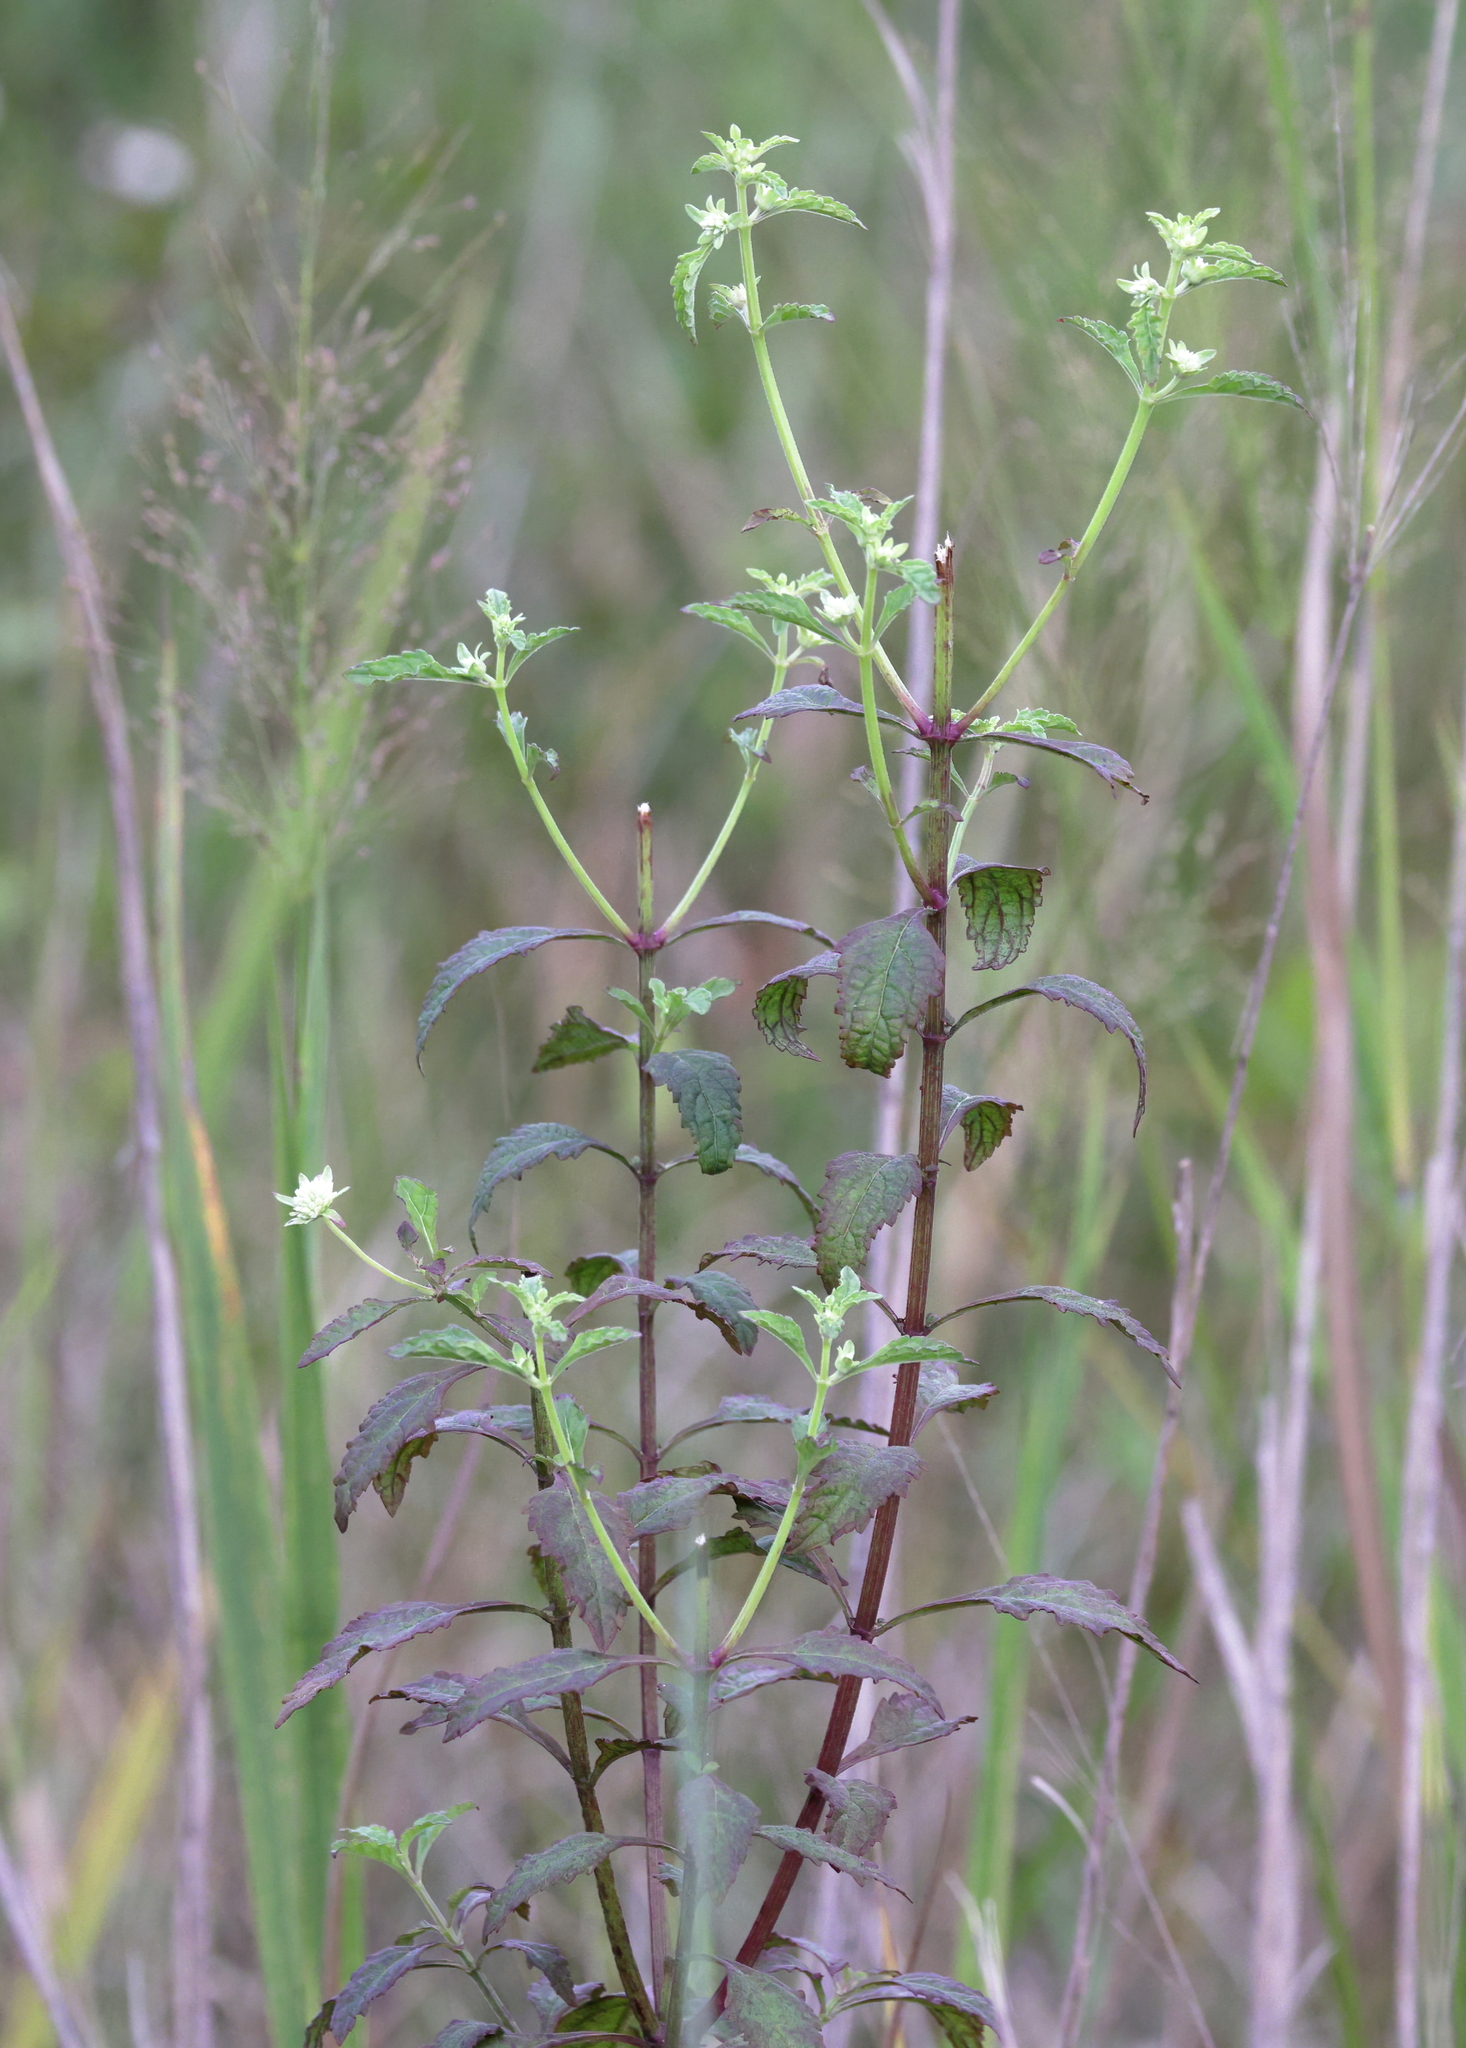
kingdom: Plantae
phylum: Tracheophyta
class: Magnoliopsida
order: Lamiales
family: Lamiaceae
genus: Hyptis
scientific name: Hyptis alata
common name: Cluster bush-mint
